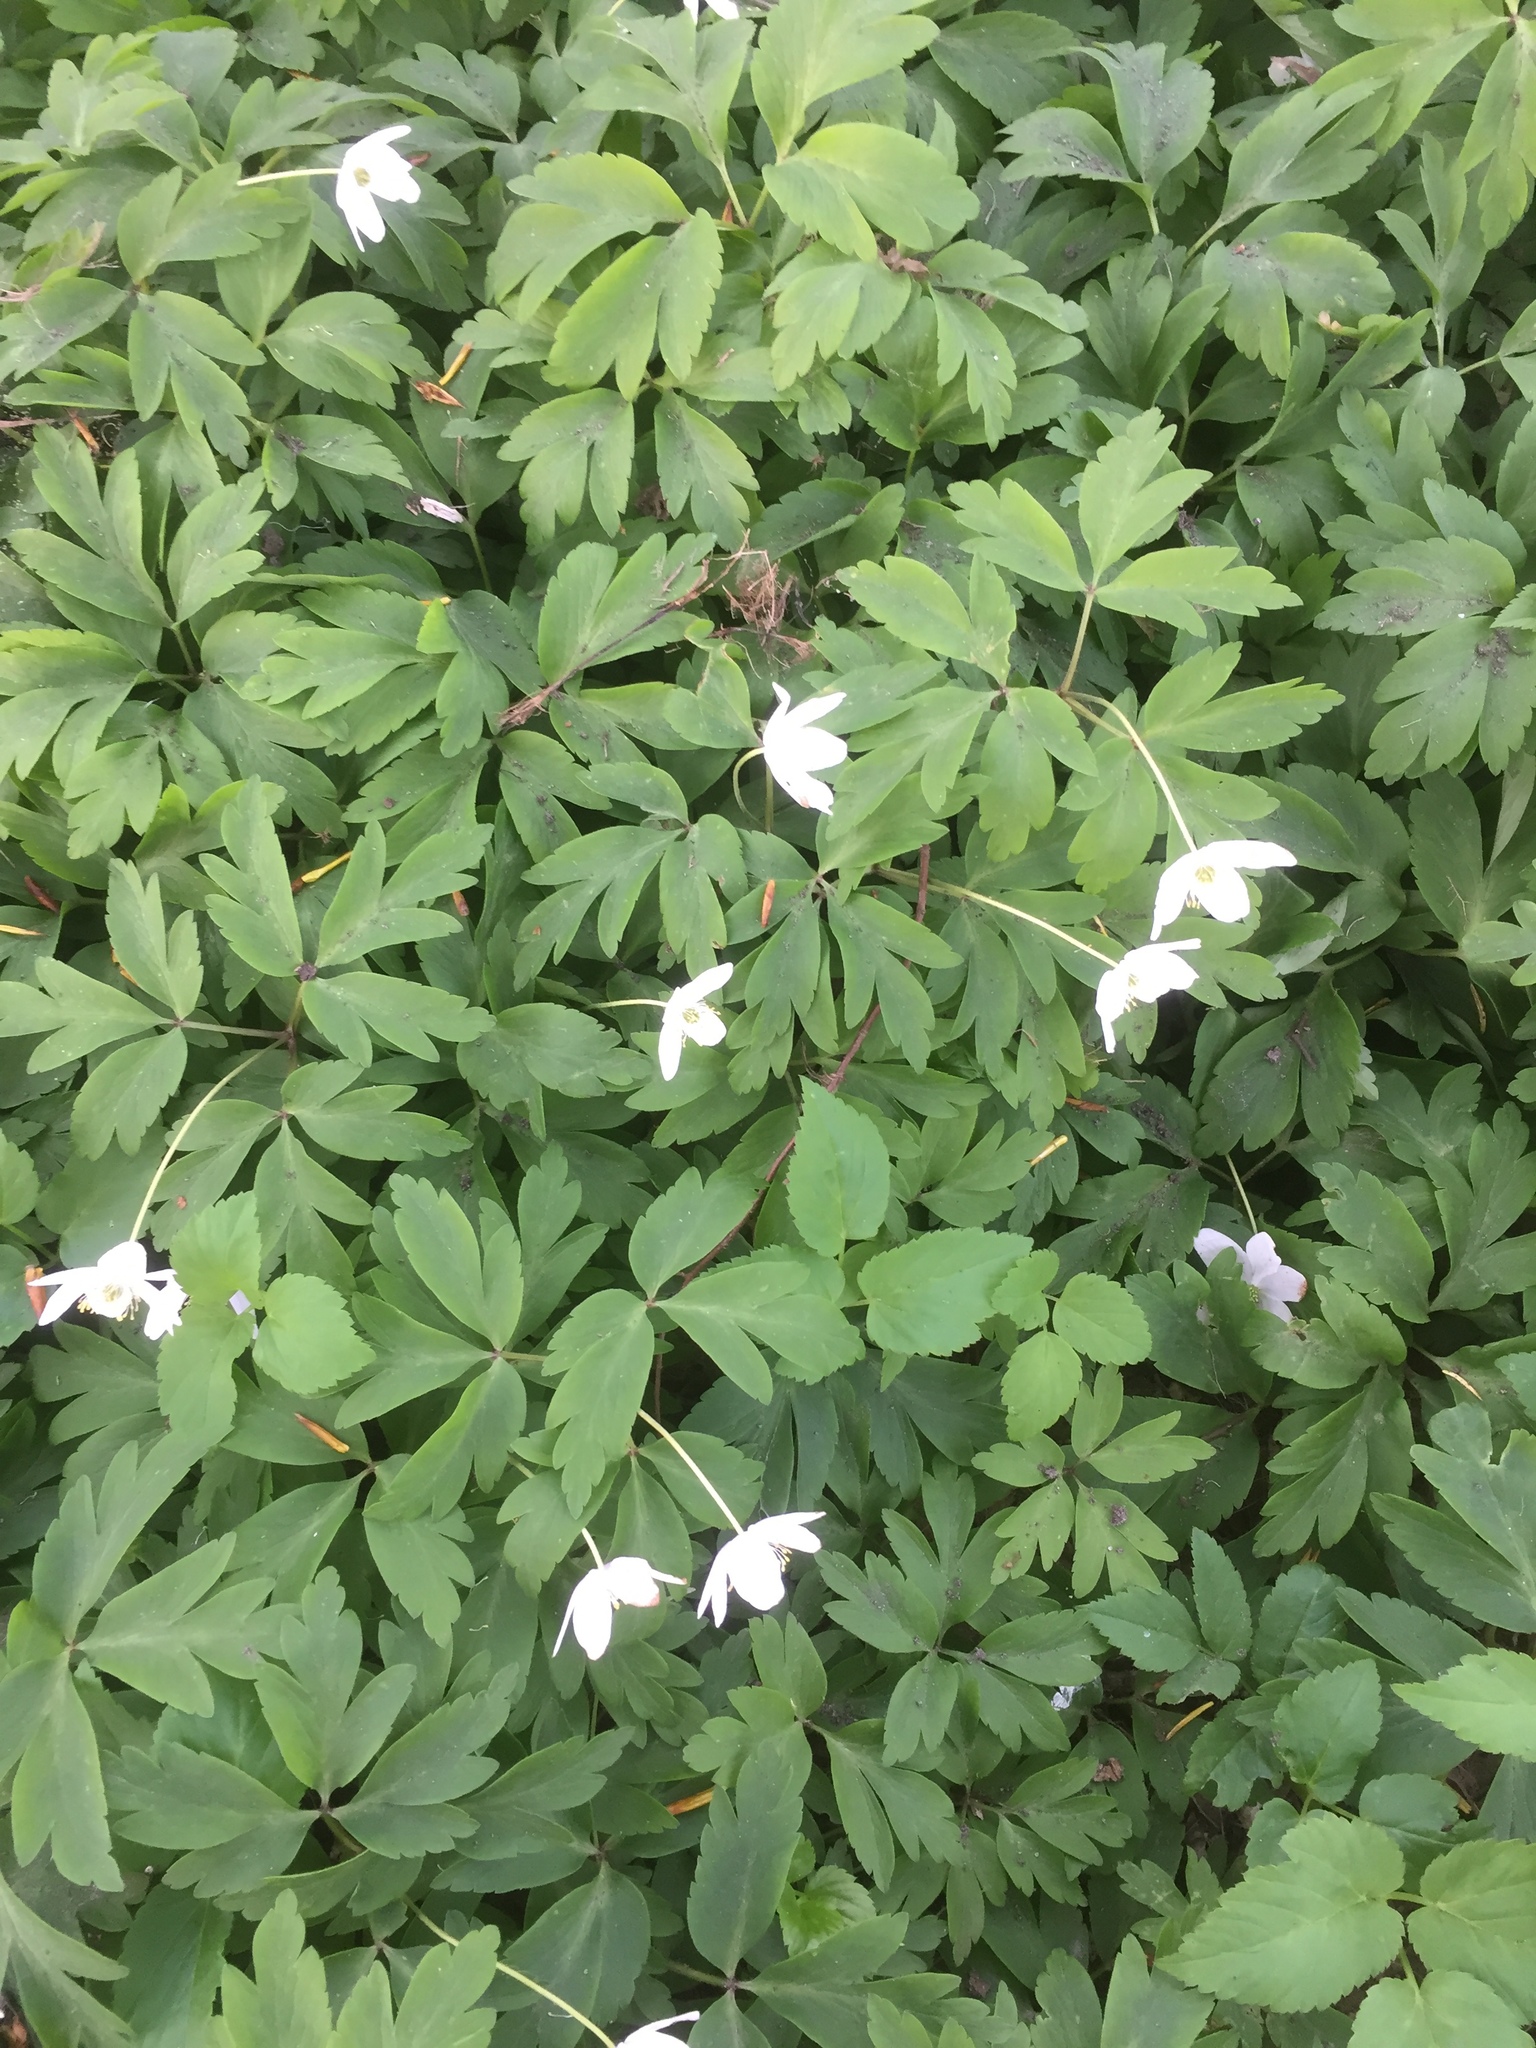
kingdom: Plantae
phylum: Tracheophyta
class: Magnoliopsida
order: Ranunculales
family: Ranunculaceae
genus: Anemone
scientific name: Anemone nemorosa
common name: Wood anemone
